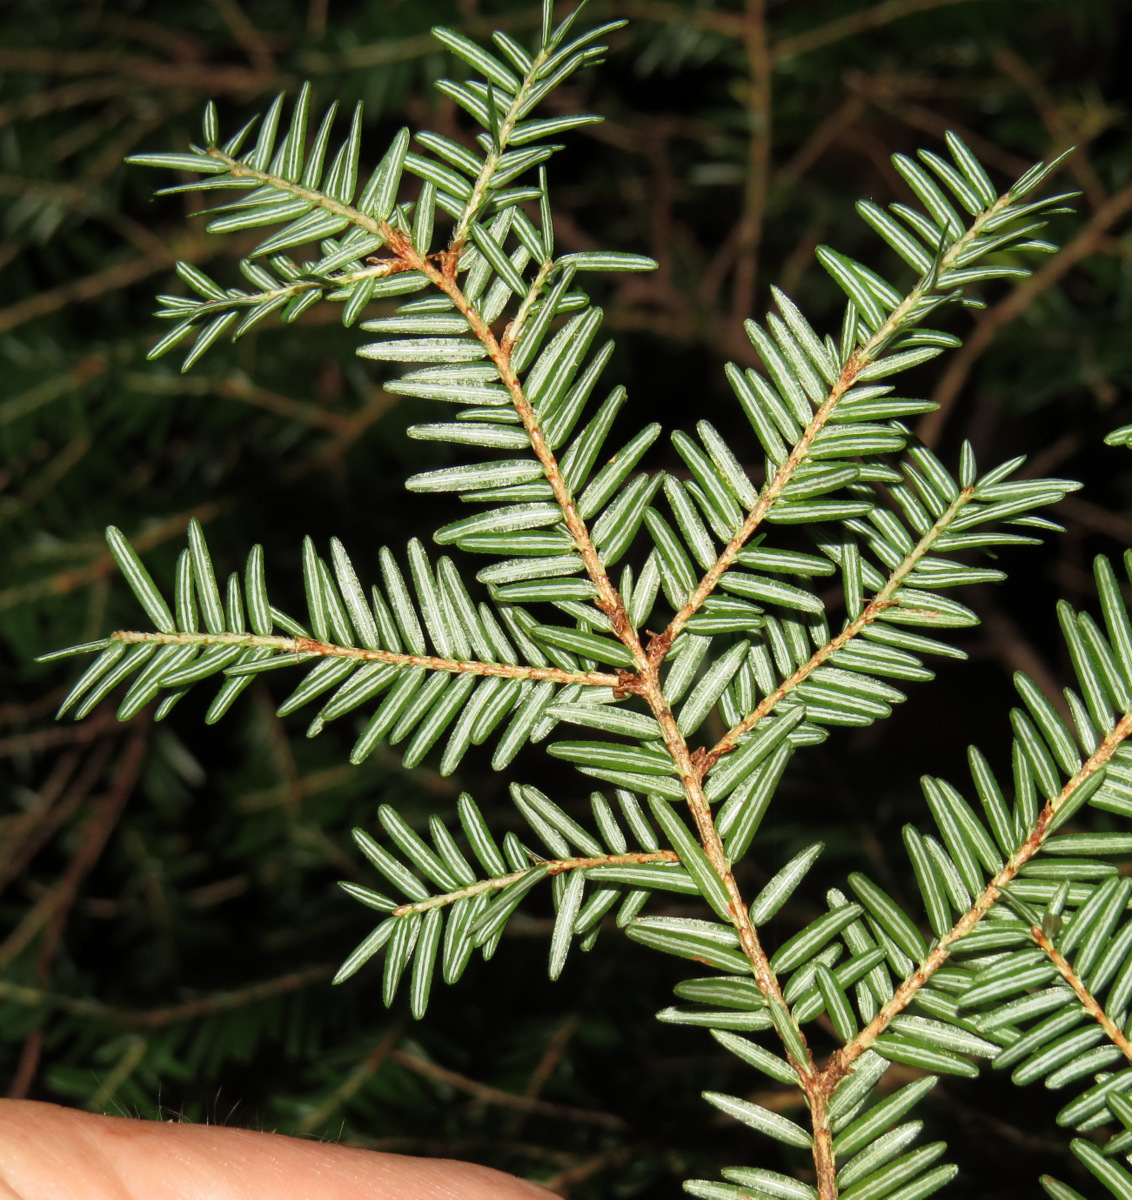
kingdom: Plantae
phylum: Tracheophyta
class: Pinopsida
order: Pinales
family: Pinaceae
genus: Tsuga
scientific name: Tsuga canadensis
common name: Eastern hemlock
